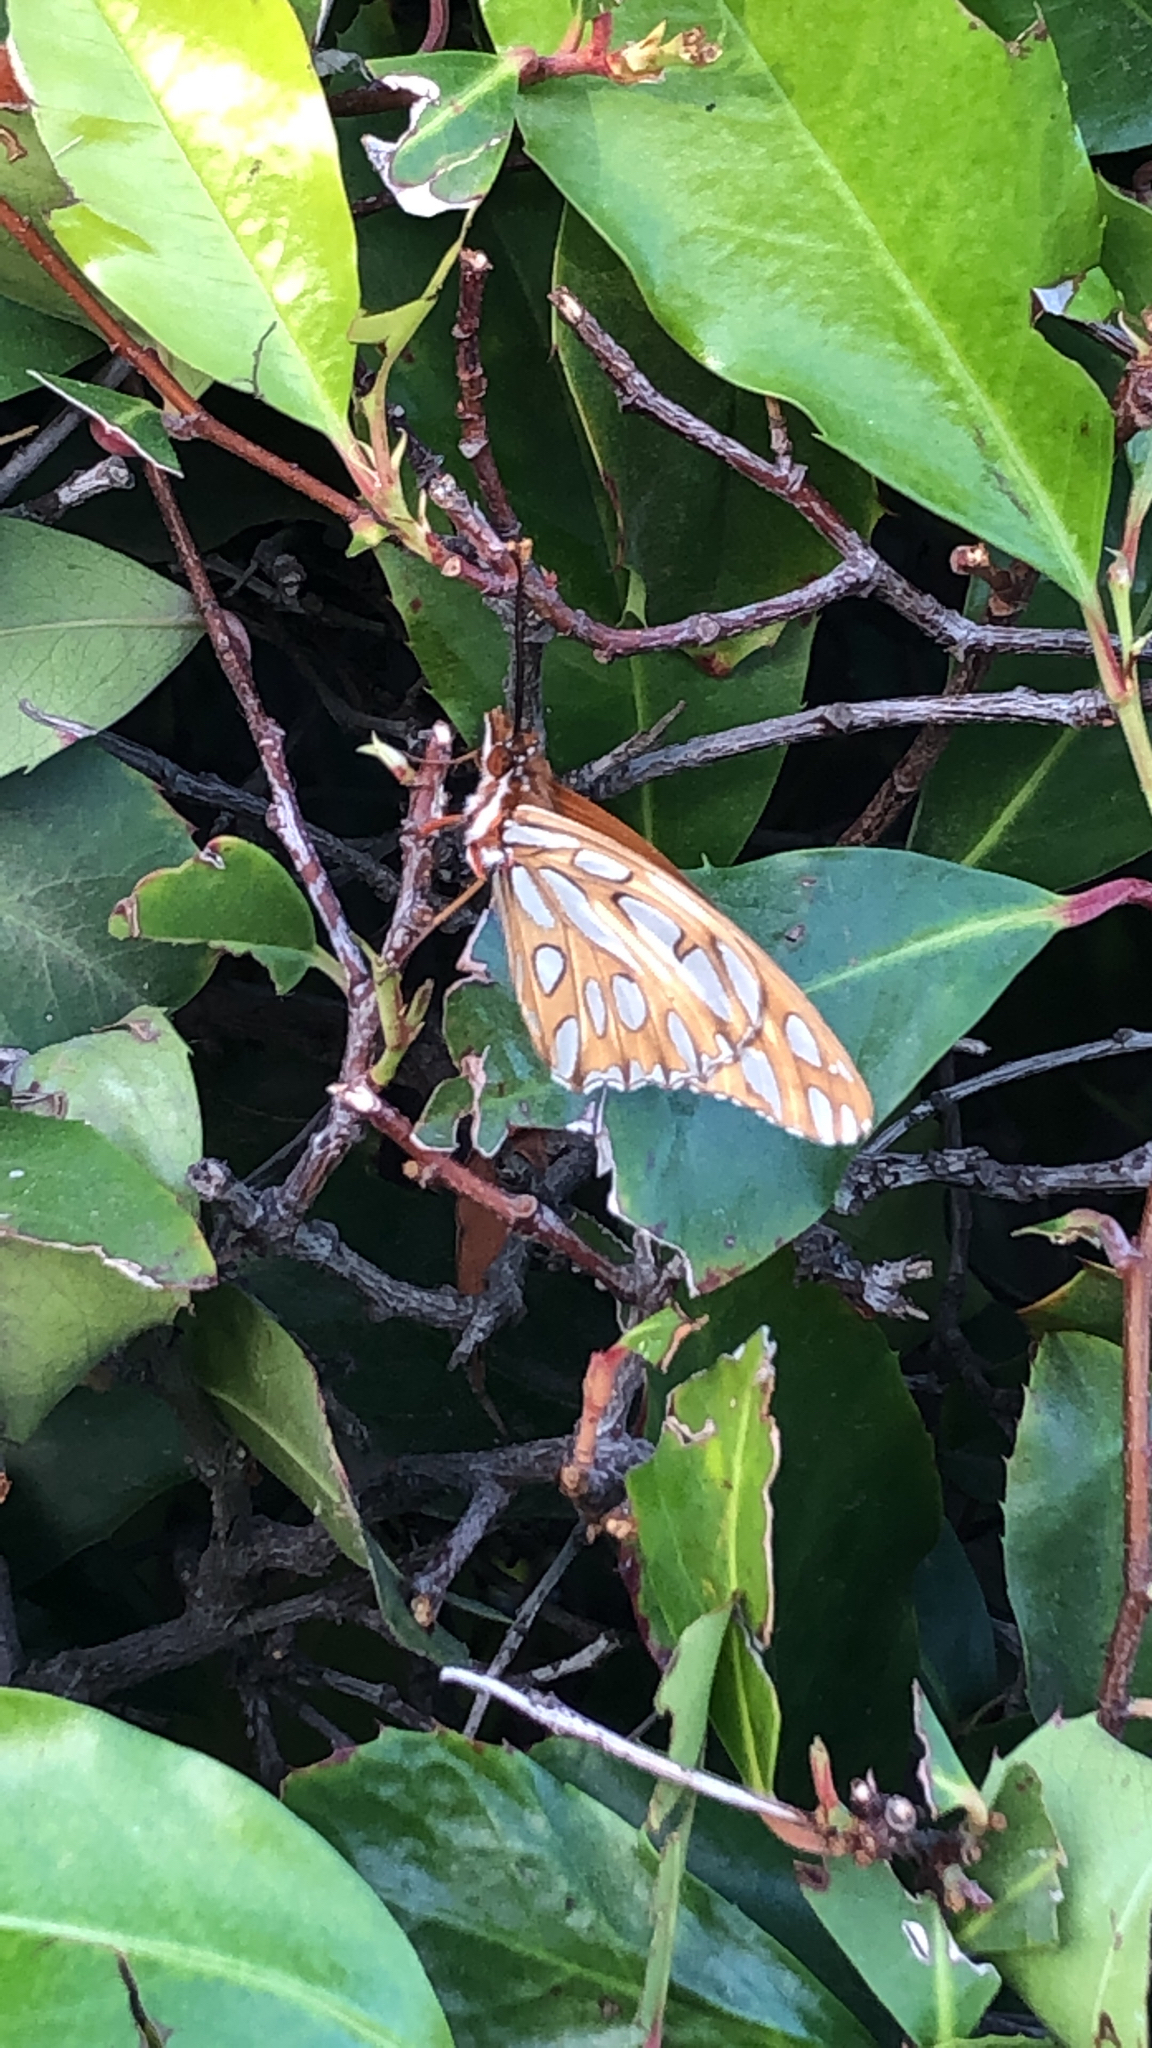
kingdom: Animalia
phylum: Arthropoda
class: Insecta
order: Lepidoptera
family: Nymphalidae
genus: Dione
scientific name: Dione vanillae
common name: Gulf fritillary
